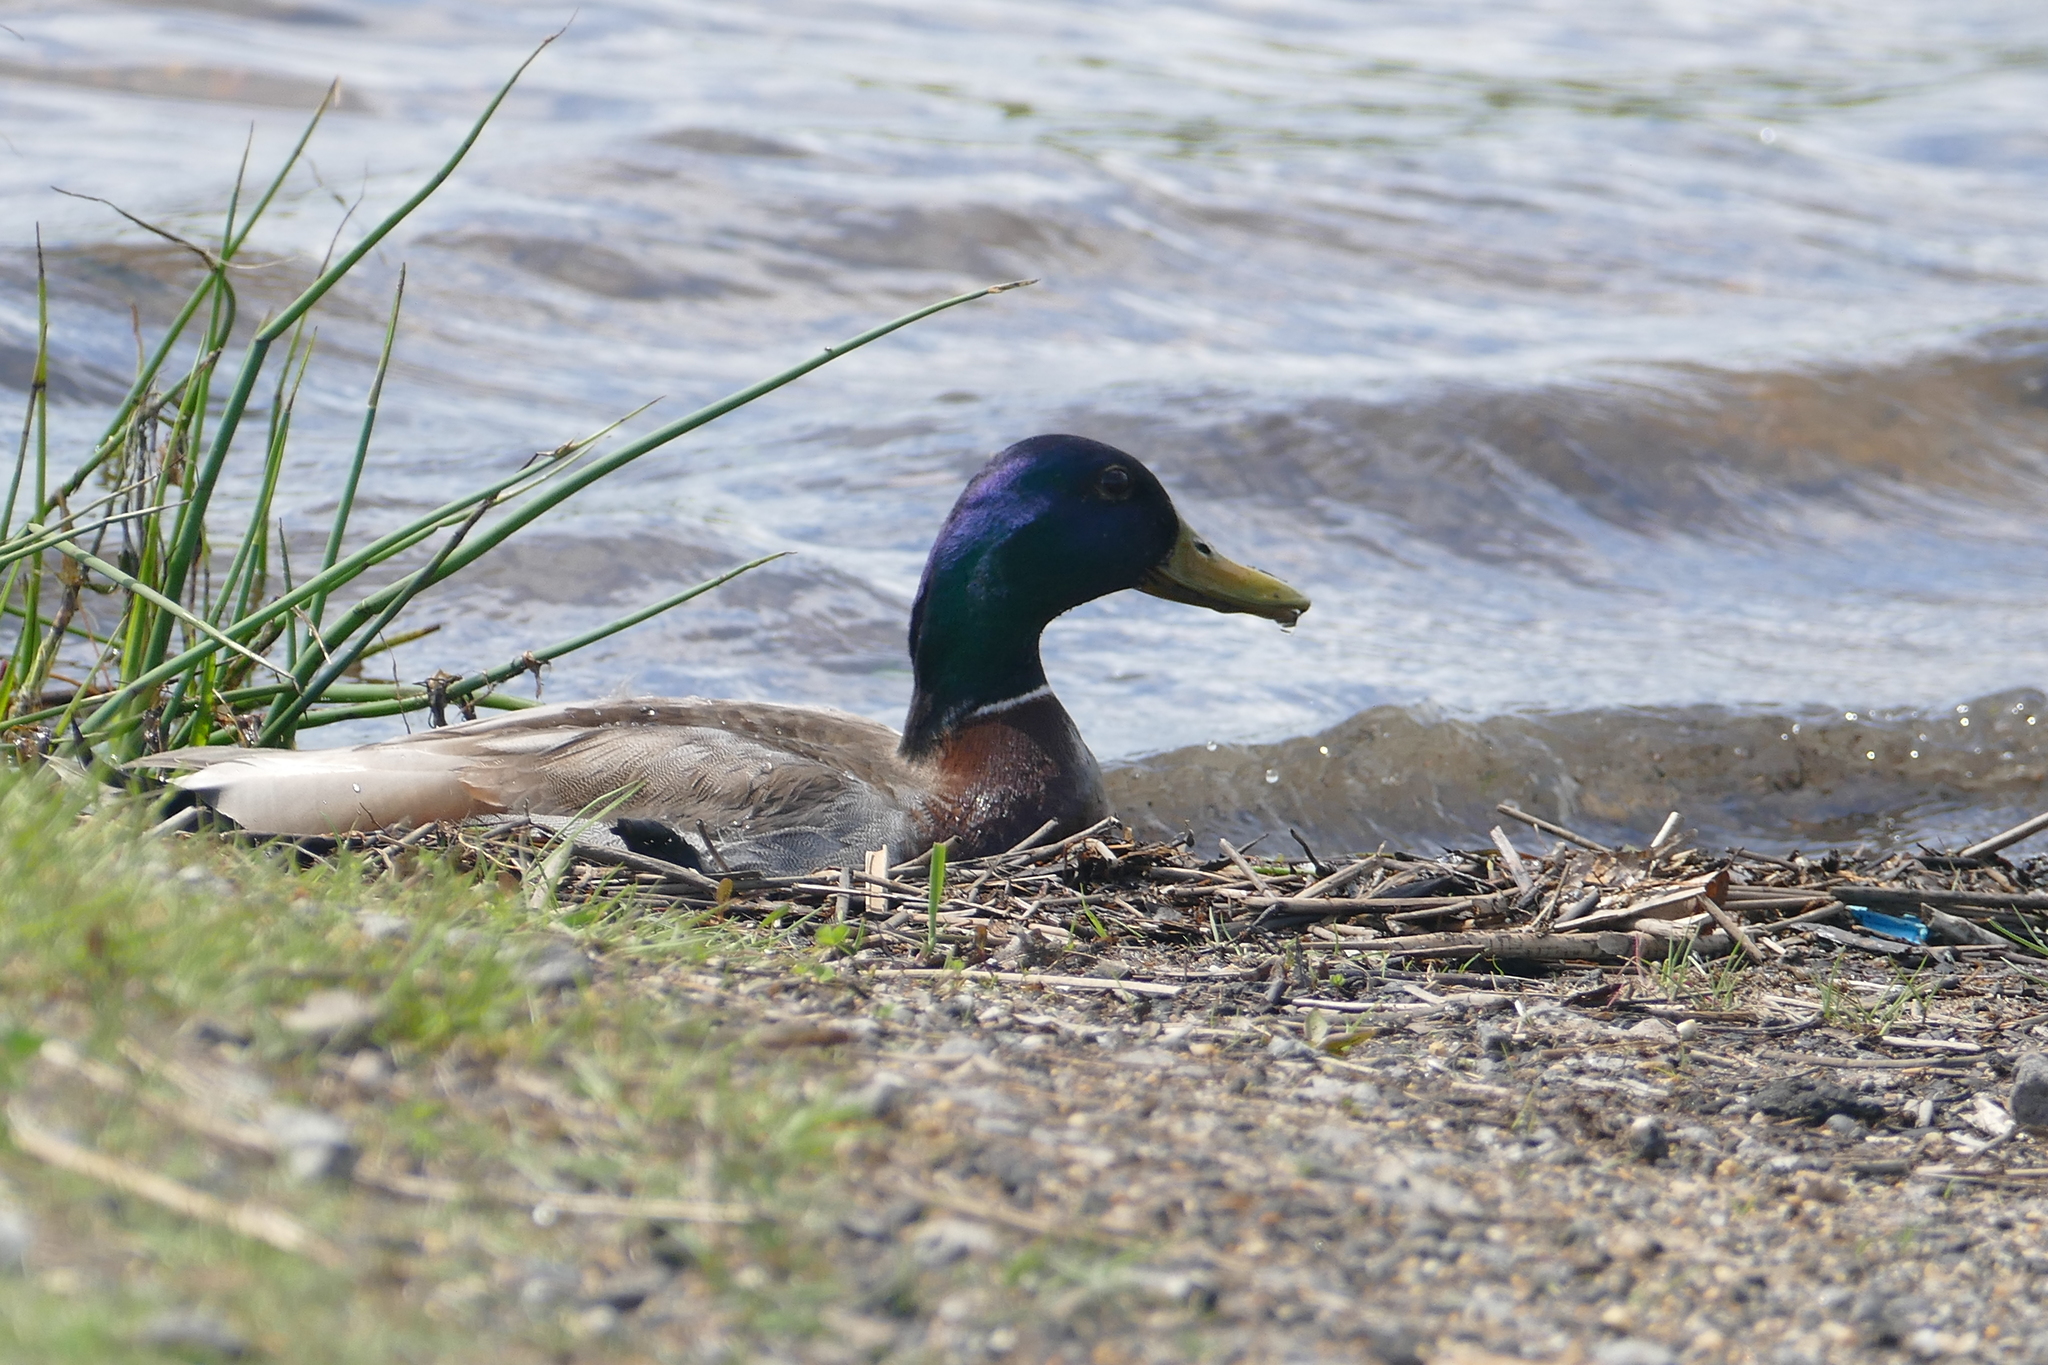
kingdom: Animalia
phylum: Chordata
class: Aves
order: Anseriformes
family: Anatidae
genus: Anas
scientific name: Anas platyrhynchos
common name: Mallard
